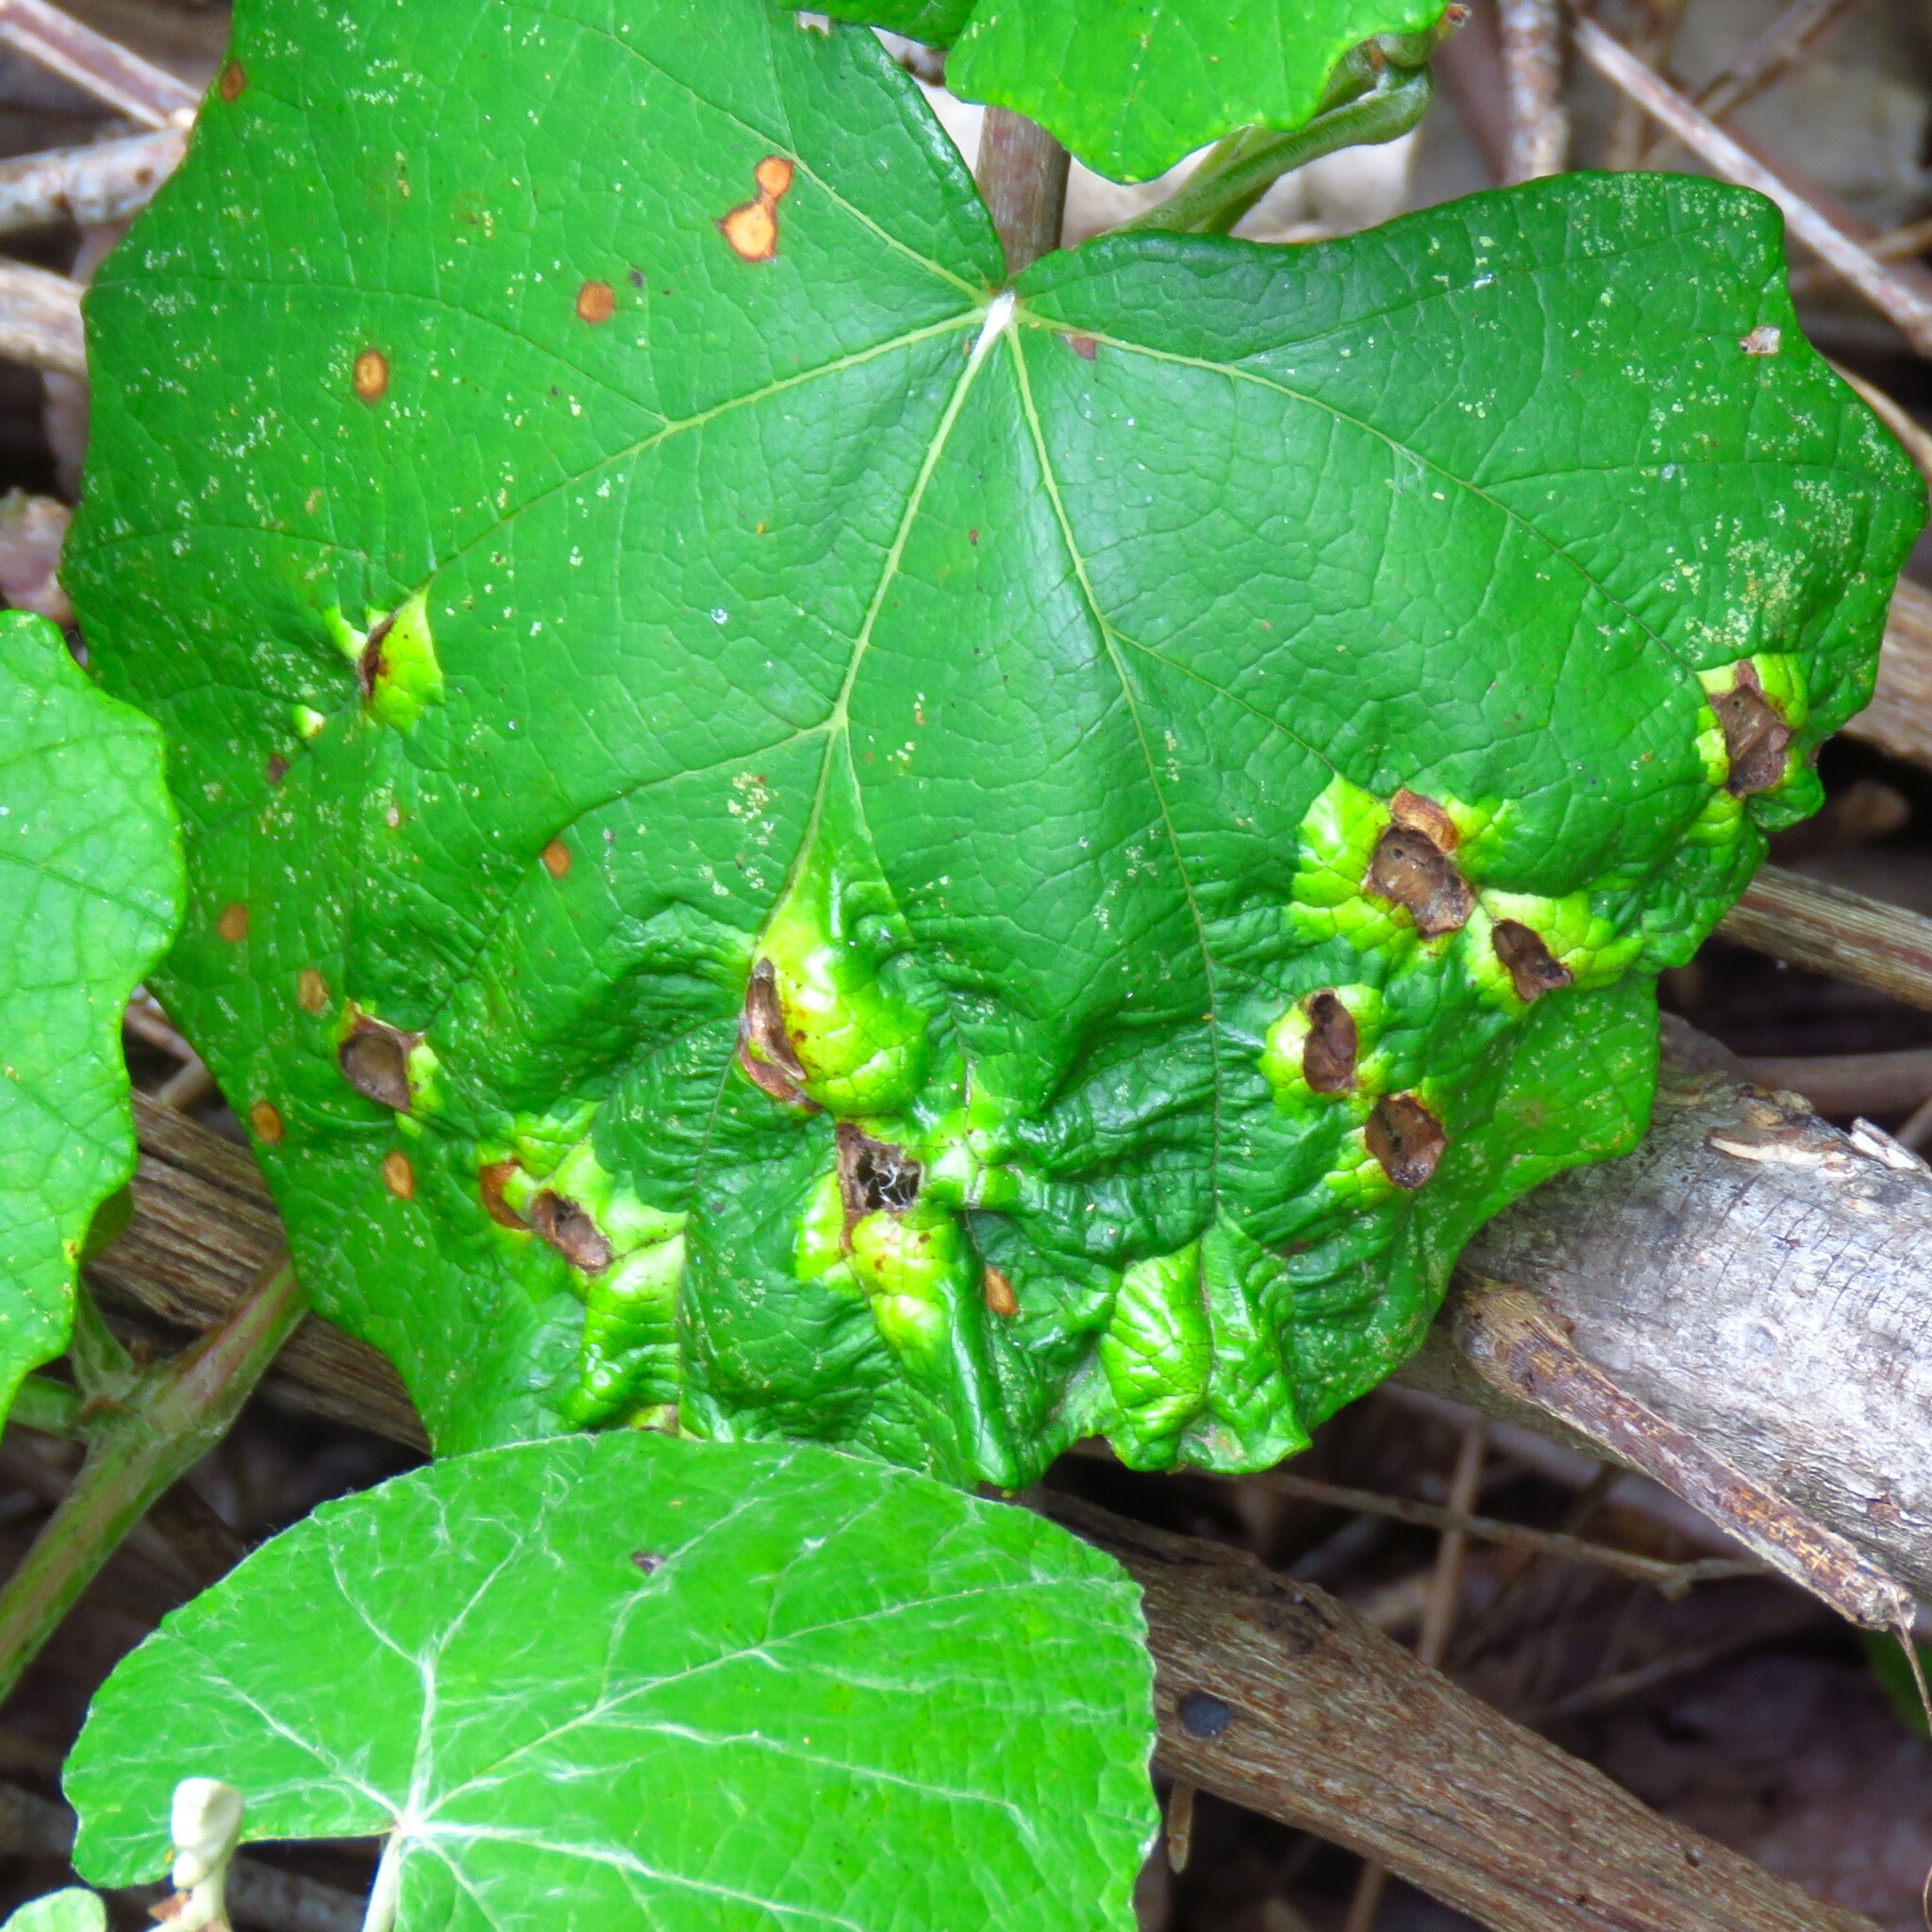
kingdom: Animalia
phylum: Arthropoda
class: Insecta
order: Lepidoptera
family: Heliozelidae
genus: Heliozela
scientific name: Heliozela aesella
